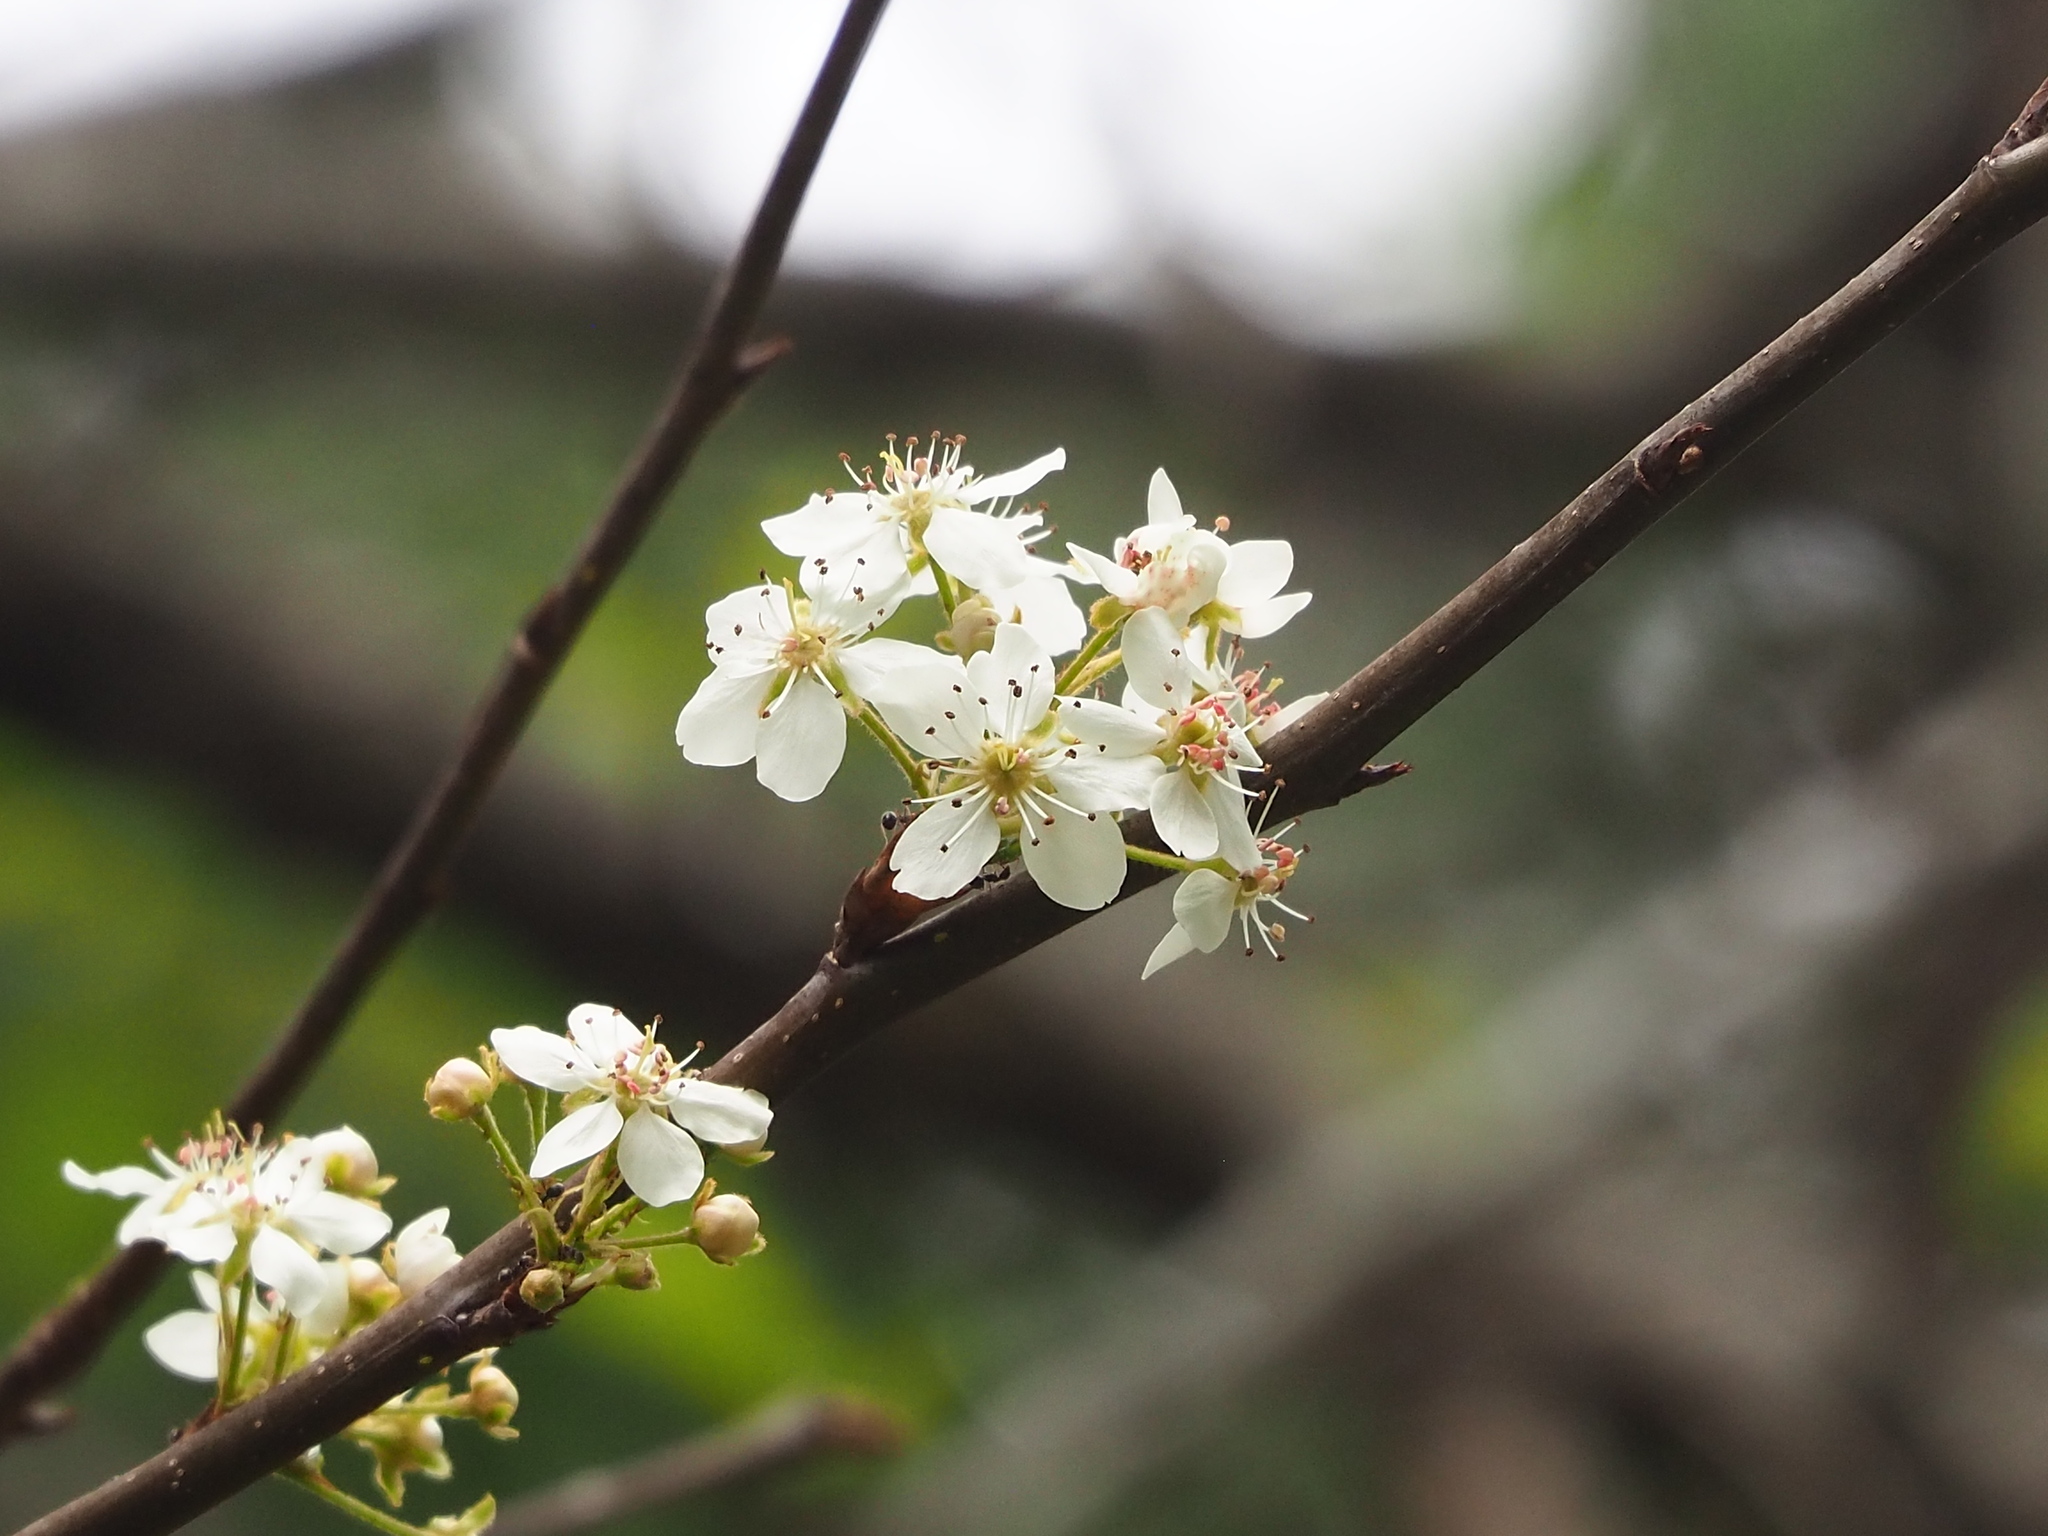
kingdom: Plantae
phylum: Tracheophyta
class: Magnoliopsida
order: Rosales
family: Rosaceae
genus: Pyrus
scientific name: Pyrus calleryana
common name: Callery pear
